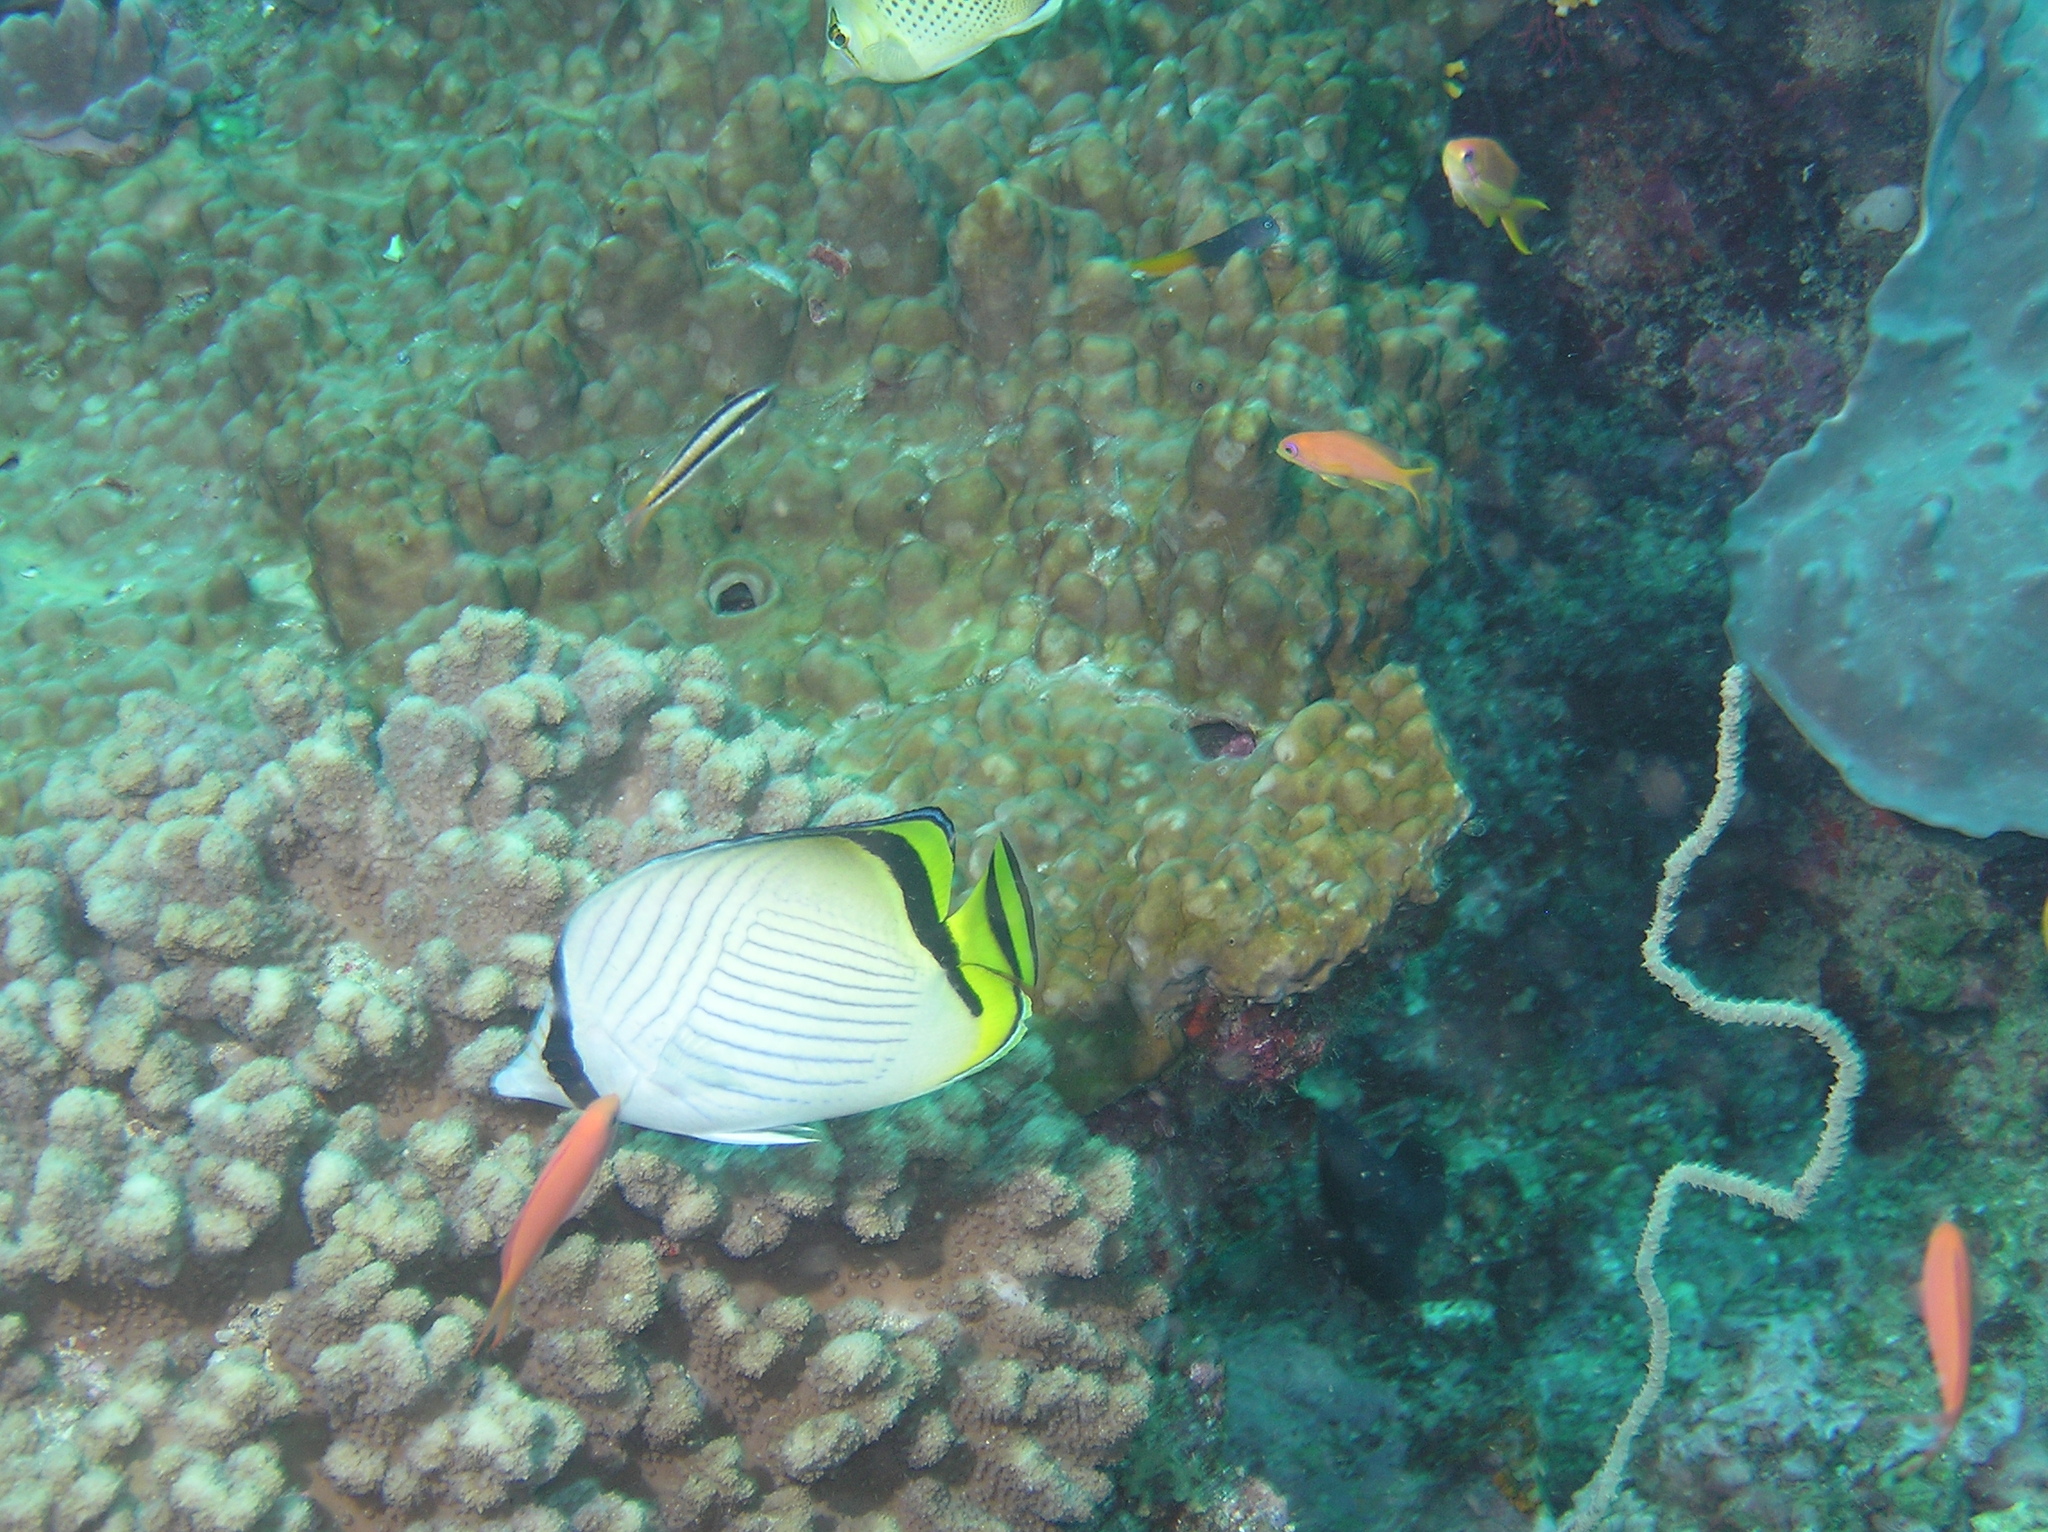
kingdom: Animalia
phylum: Chordata
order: Perciformes
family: Chaetodontidae
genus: Chaetodon
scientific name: Chaetodon vagabundus
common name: Vagabond butterflyfish
